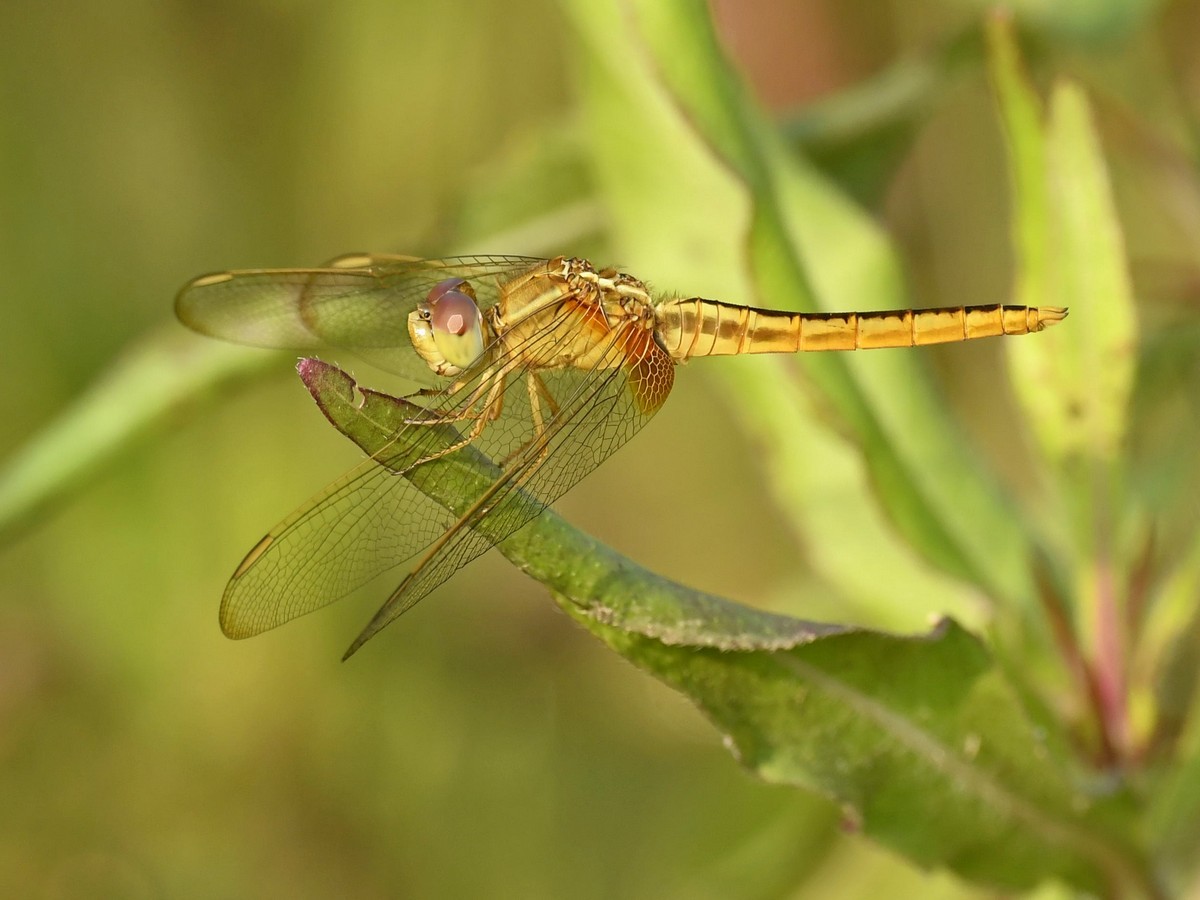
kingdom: Animalia
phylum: Arthropoda
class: Insecta
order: Odonata
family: Libellulidae
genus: Crocothemis
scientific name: Crocothemis servilia
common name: Scarlet skimmer
